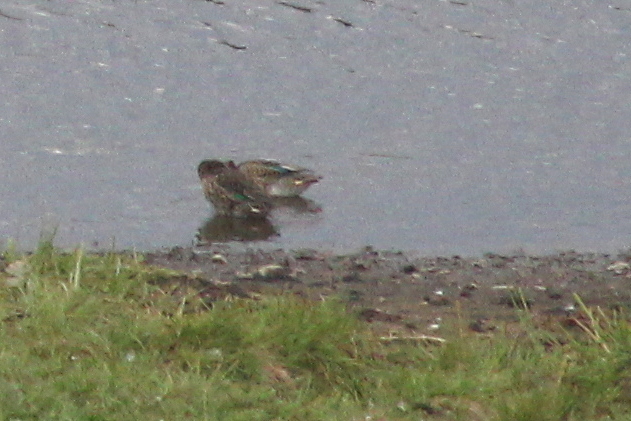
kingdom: Animalia
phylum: Chordata
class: Aves
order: Anseriformes
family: Anatidae
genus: Anas
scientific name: Anas crecca
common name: Eurasian teal
